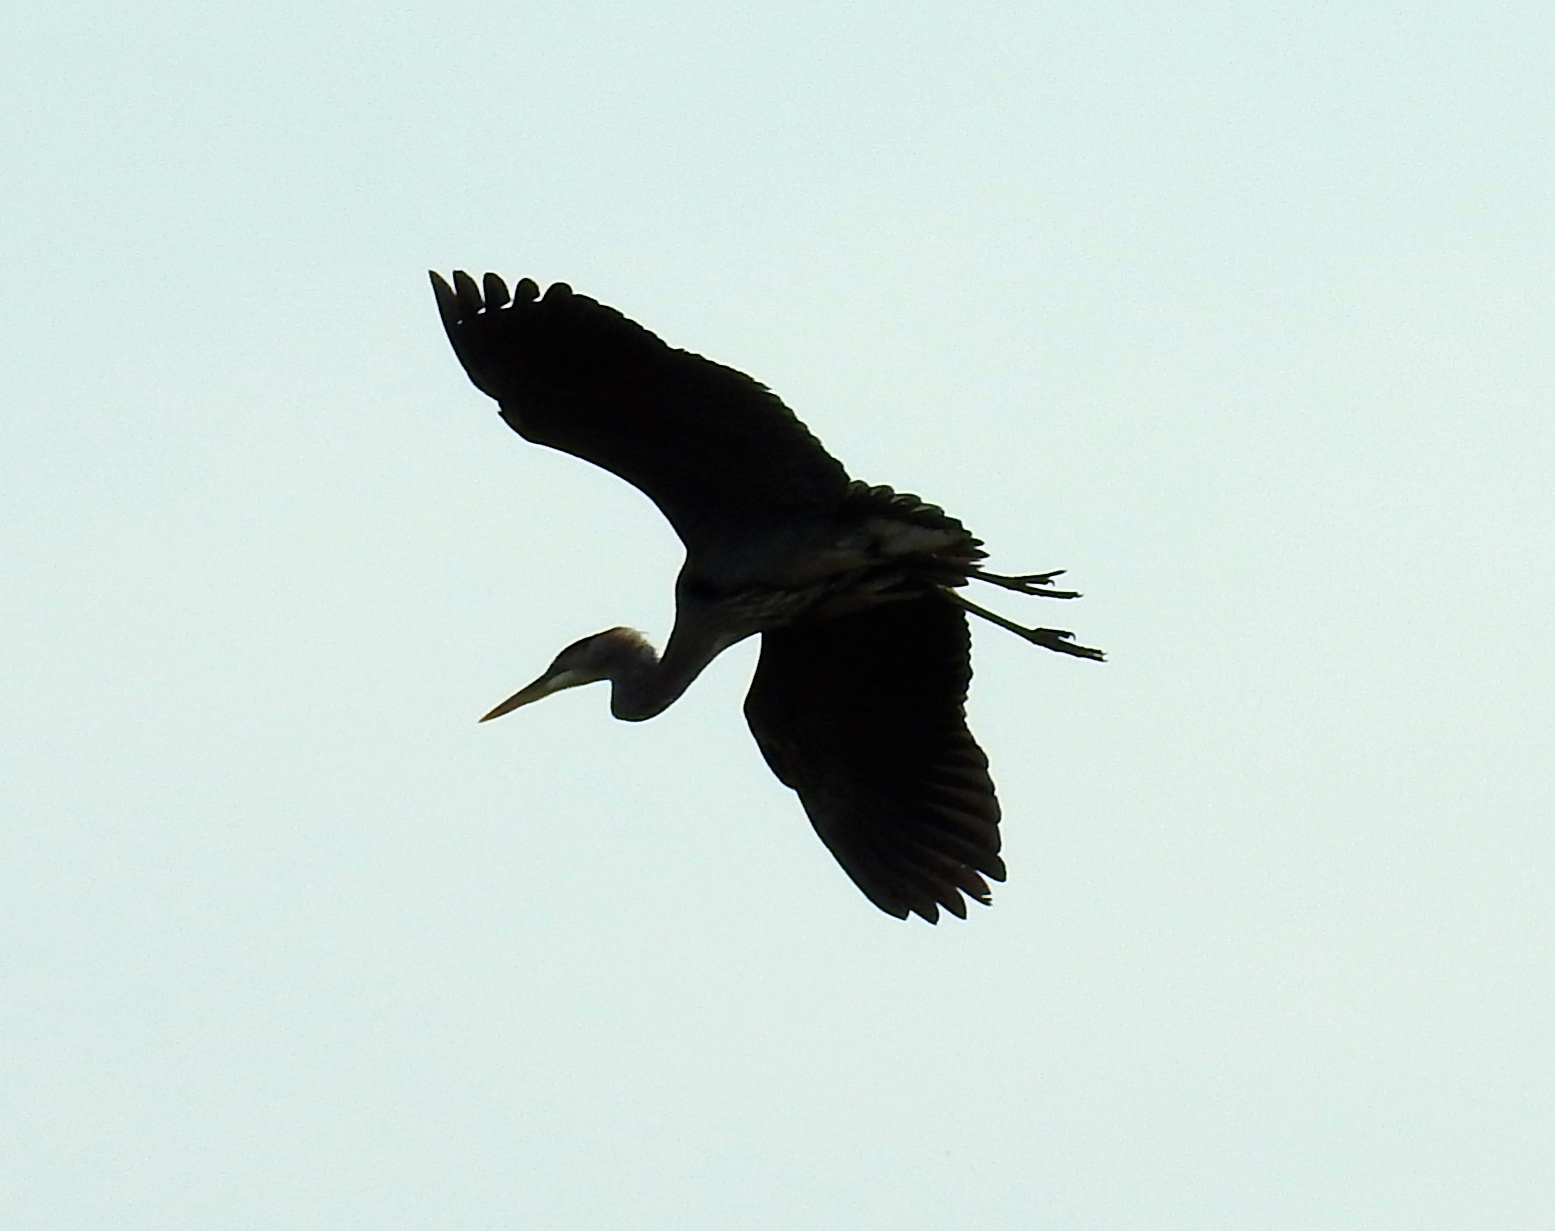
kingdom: Animalia
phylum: Chordata
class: Aves
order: Pelecaniformes
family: Ardeidae
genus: Ardea
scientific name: Ardea herodias
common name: Great blue heron
